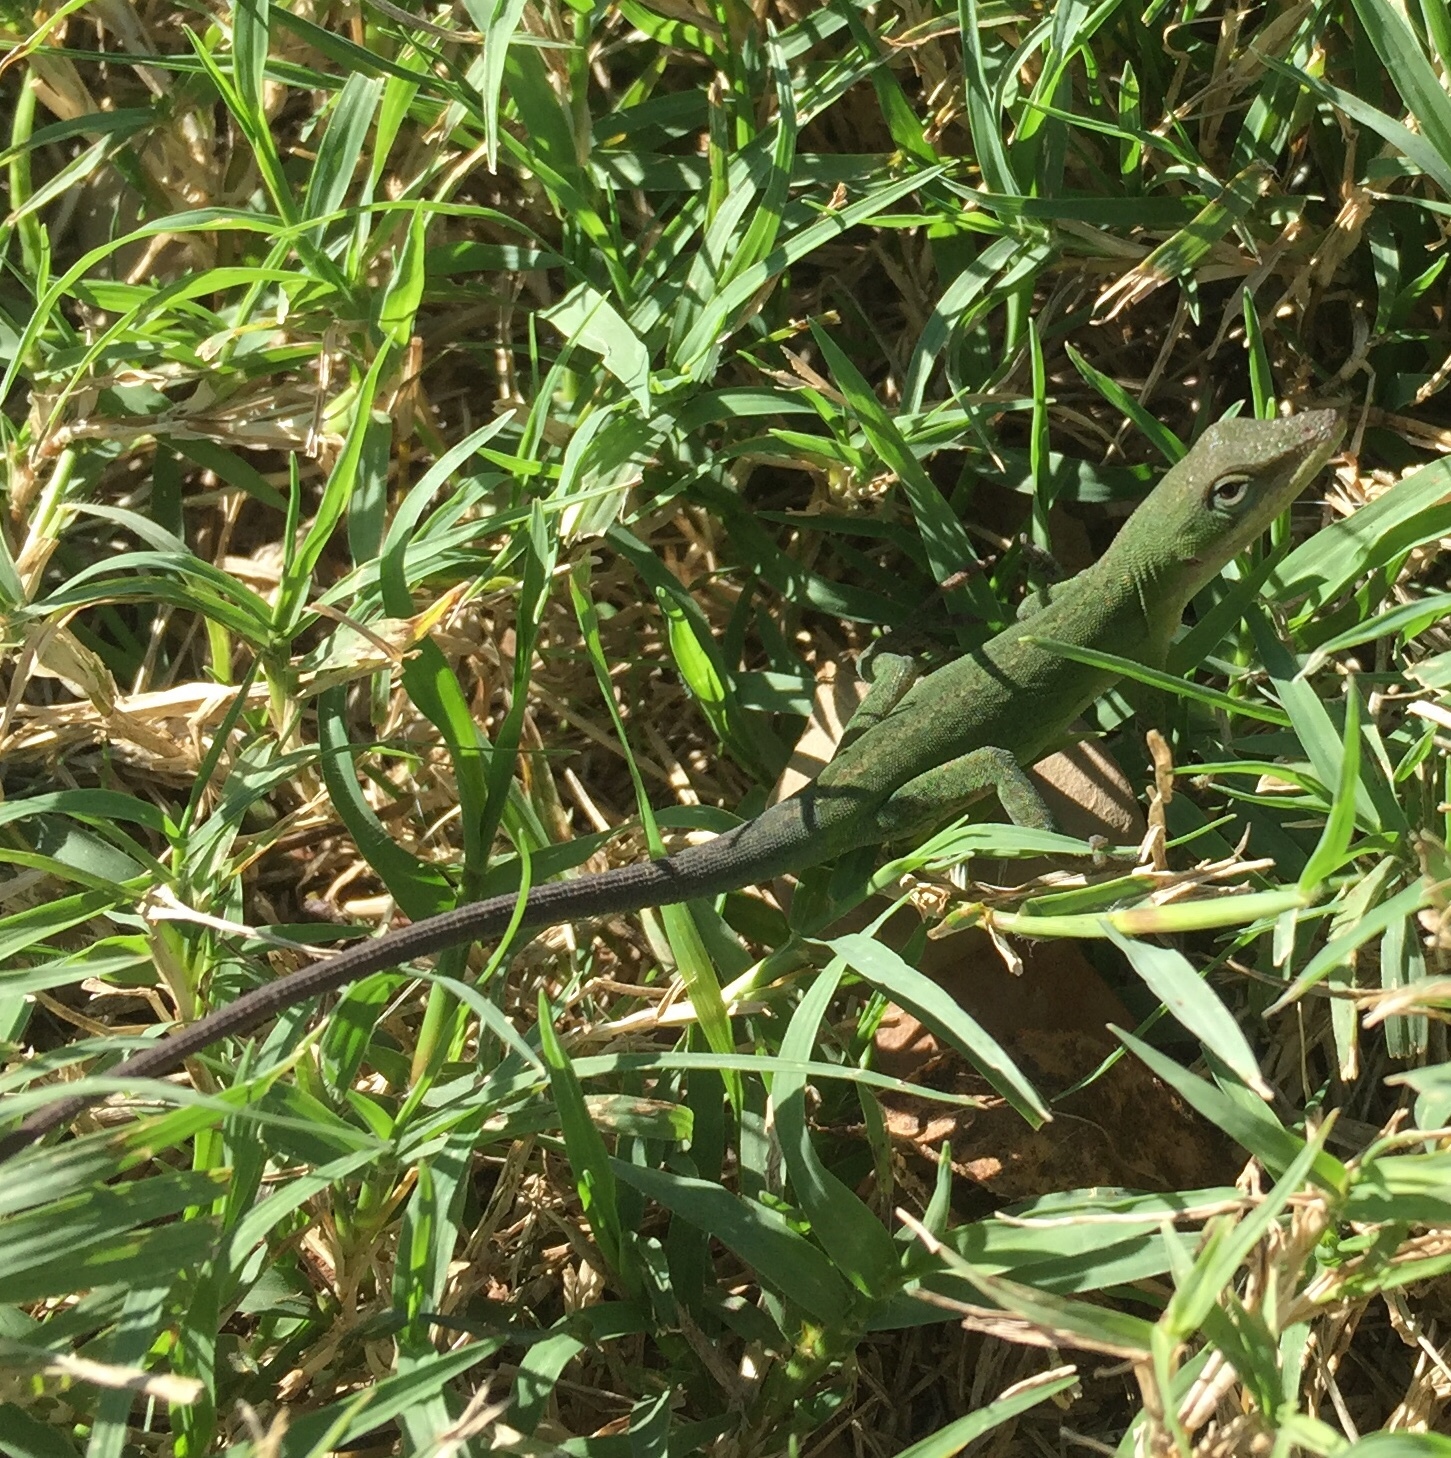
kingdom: Animalia
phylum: Chordata
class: Squamata
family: Dactyloidae
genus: Anolis
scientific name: Anolis carolinensis
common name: Green anole
